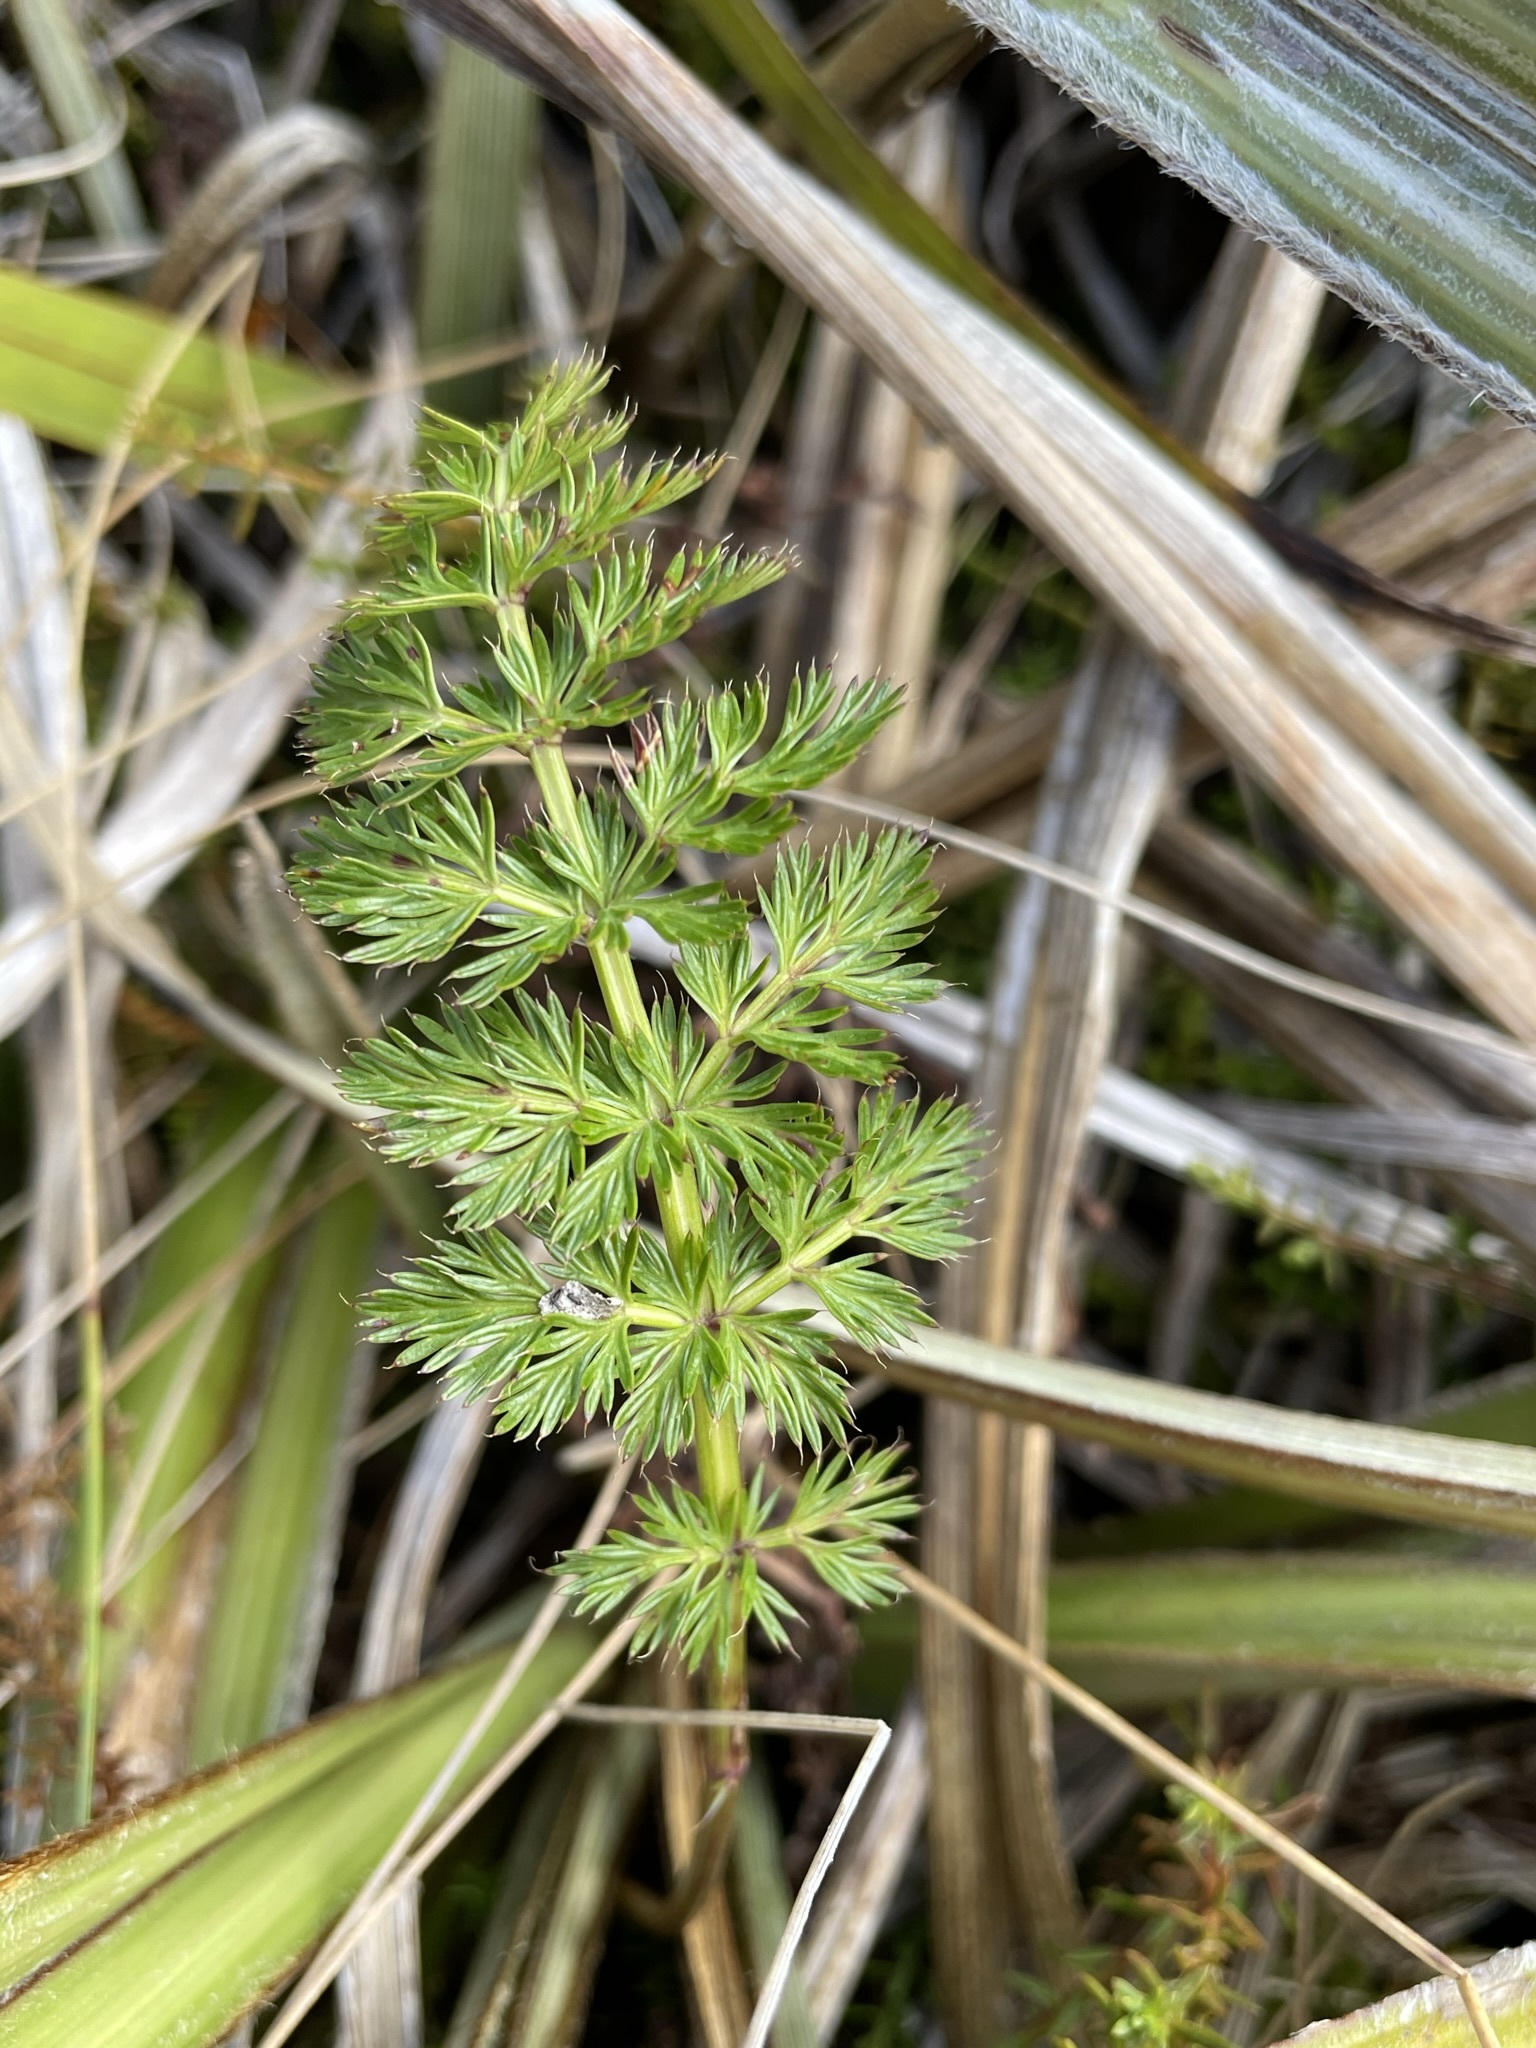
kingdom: Plantae
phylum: Tracheophyta
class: Magnoliopsida
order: Apiales
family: Apiaceae
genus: Anisotome
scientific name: Anisotome haastii
